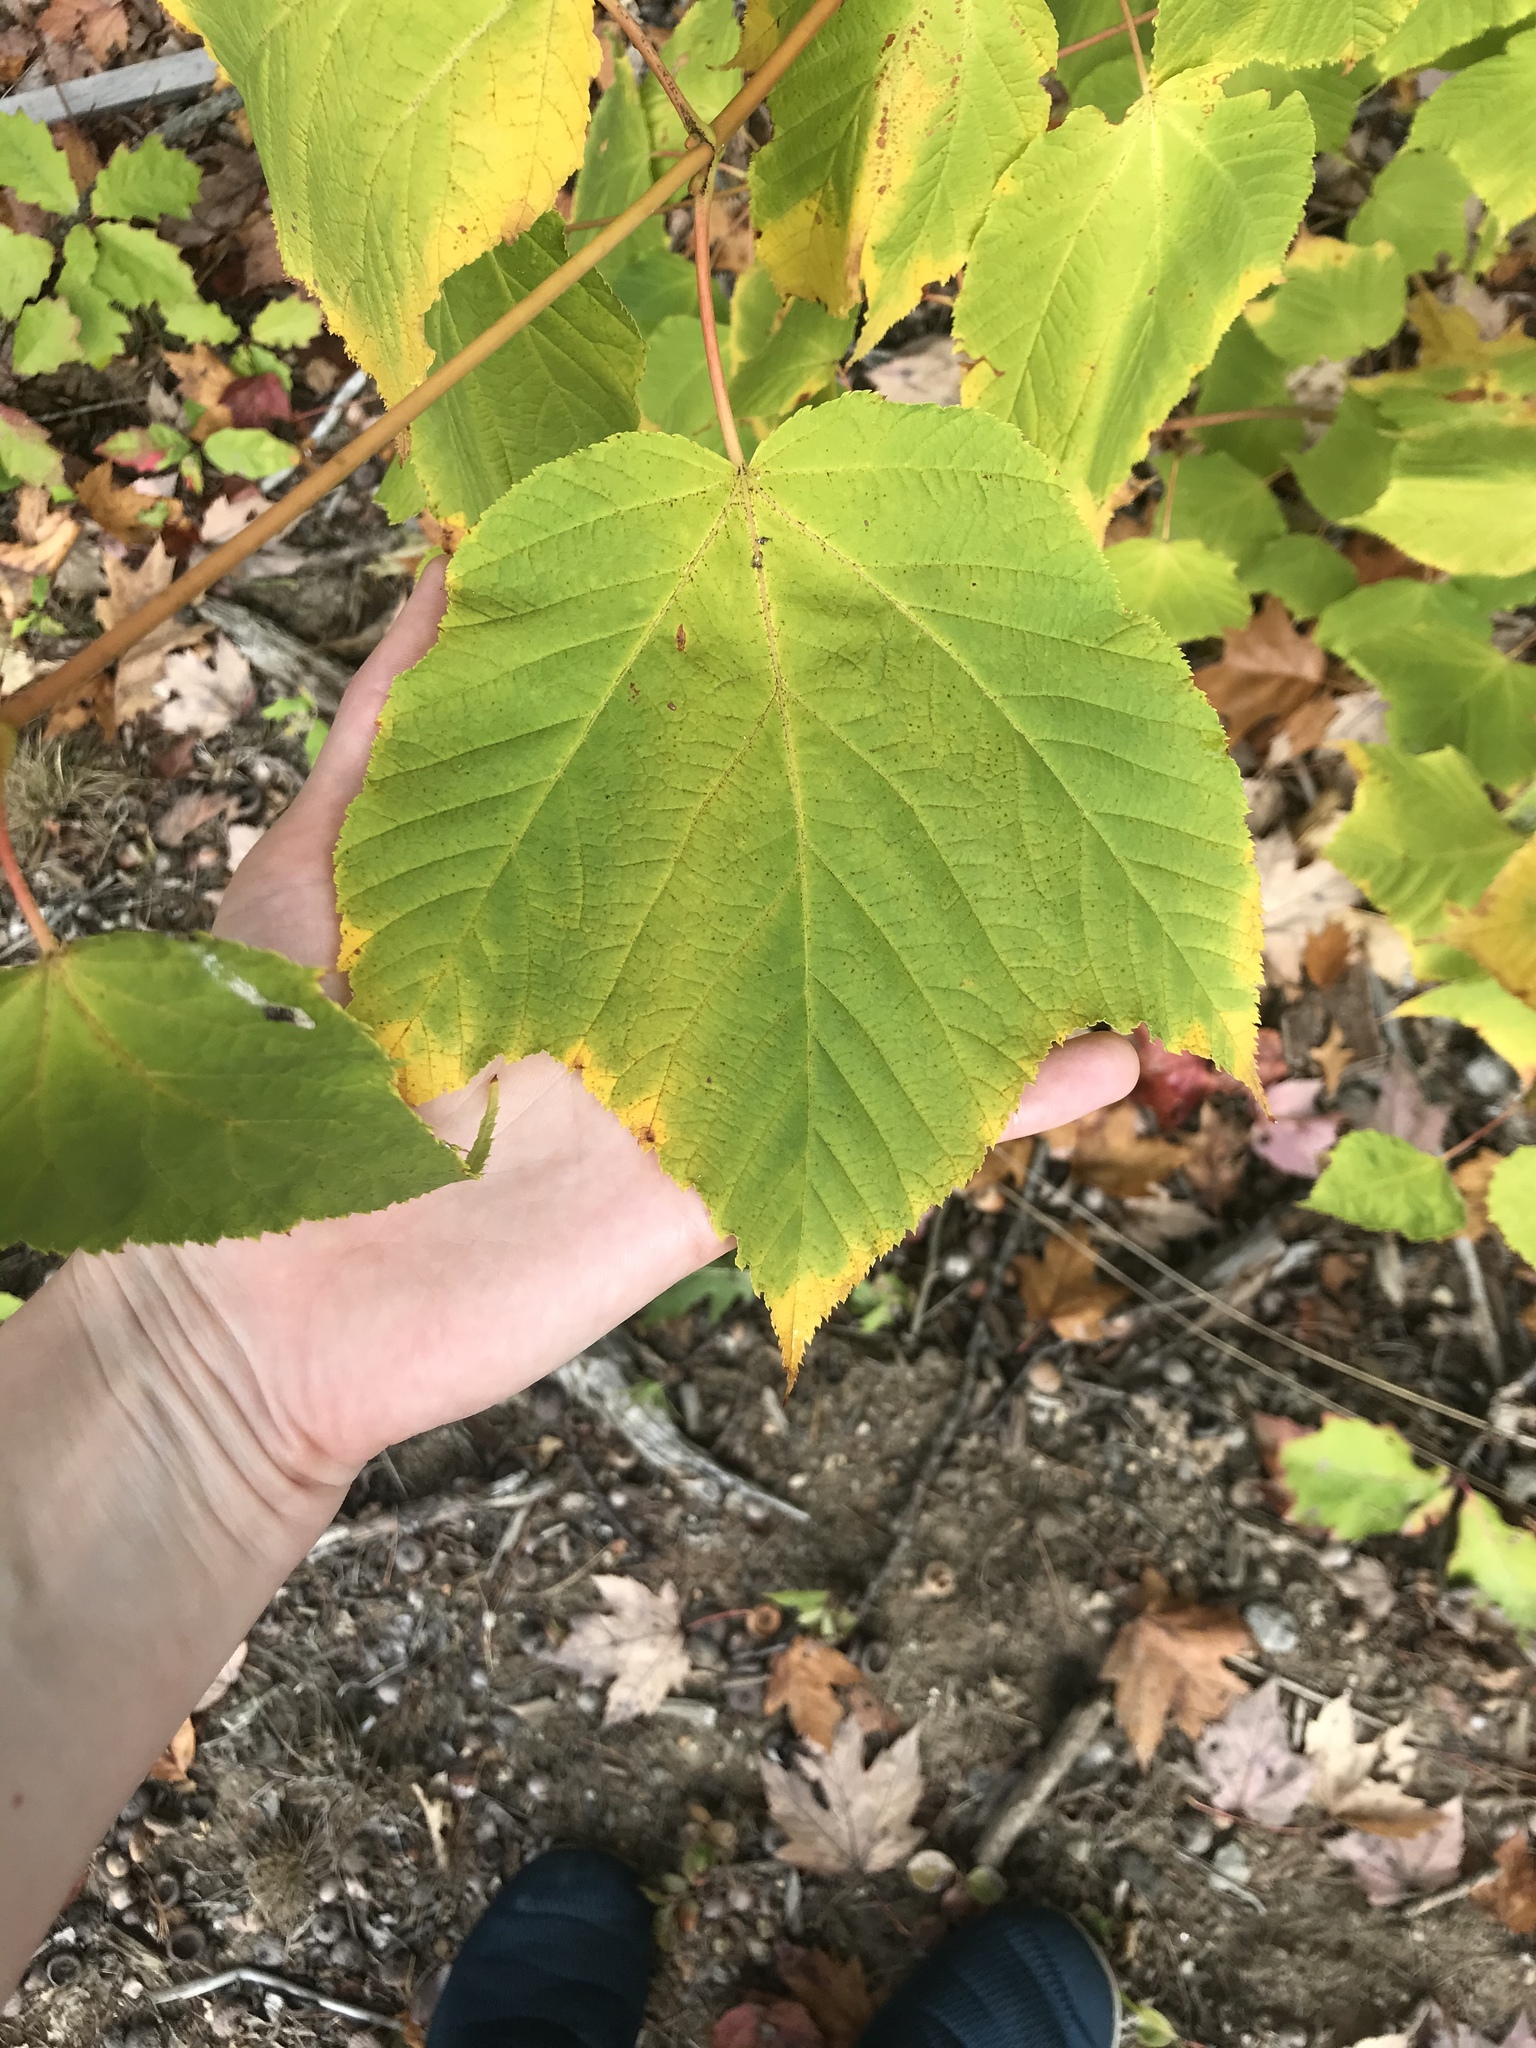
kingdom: Plantae
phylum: Tracheophyta
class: Magnoliopsida
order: Sapindales
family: Sapindaceae
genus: Acer
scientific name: Acer pensylvanicum
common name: Moosewood
